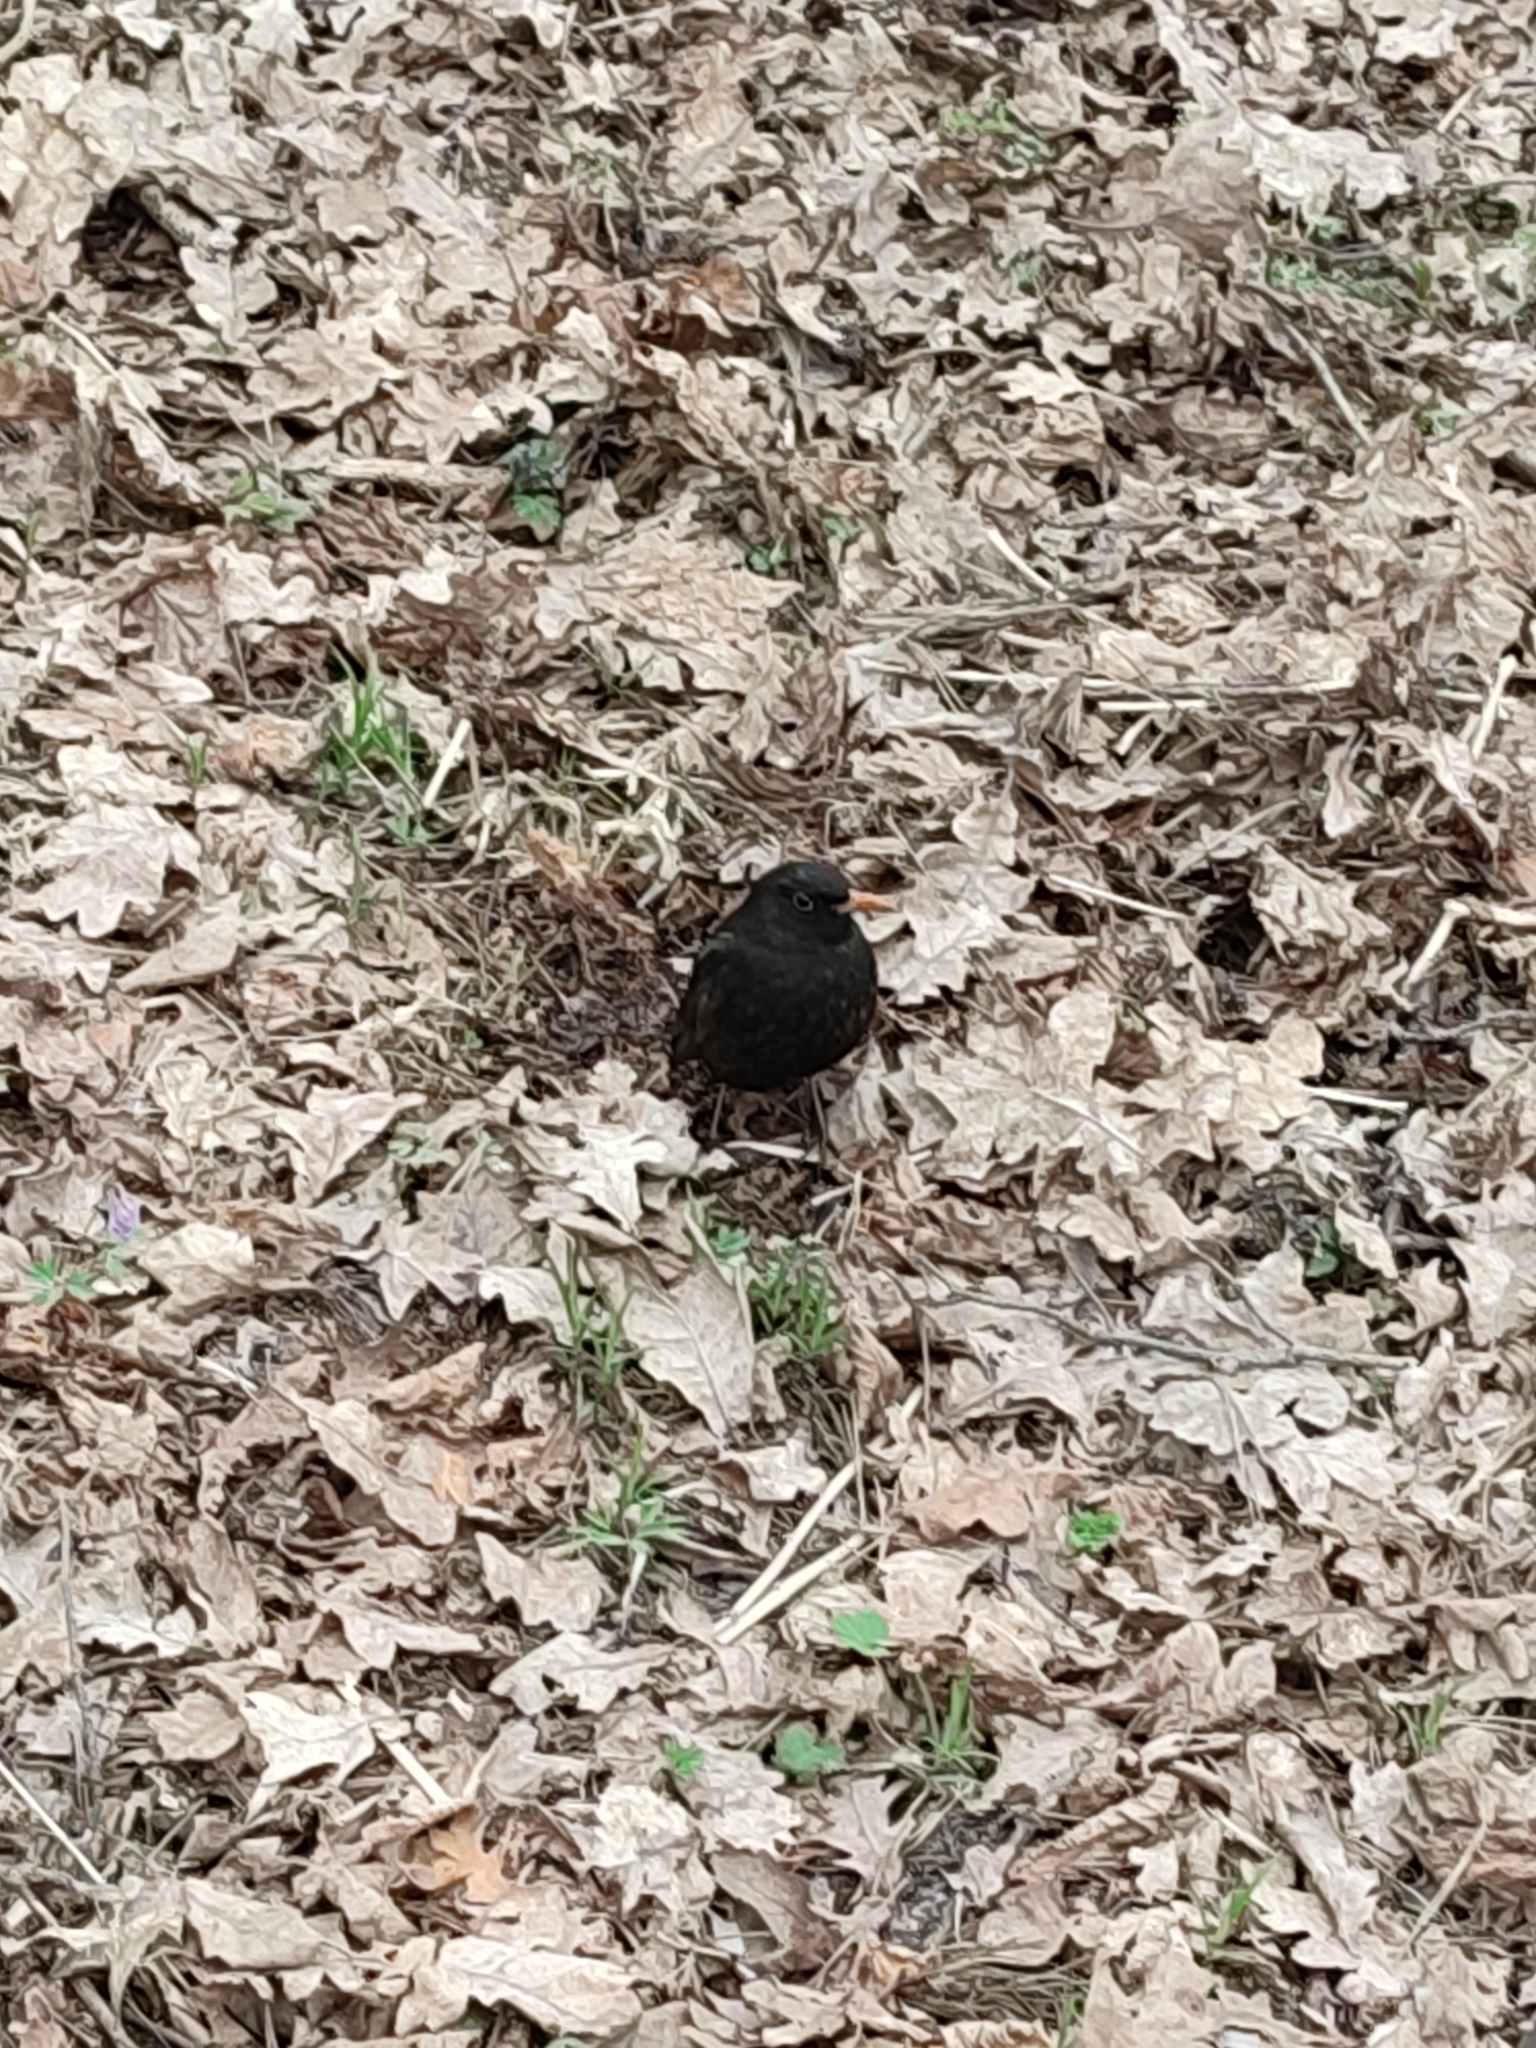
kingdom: Animalia
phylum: Chordata
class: Aves
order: Passeriformes
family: Turdidae
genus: Turdus
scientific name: Turdus merula
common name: Common blackbird
